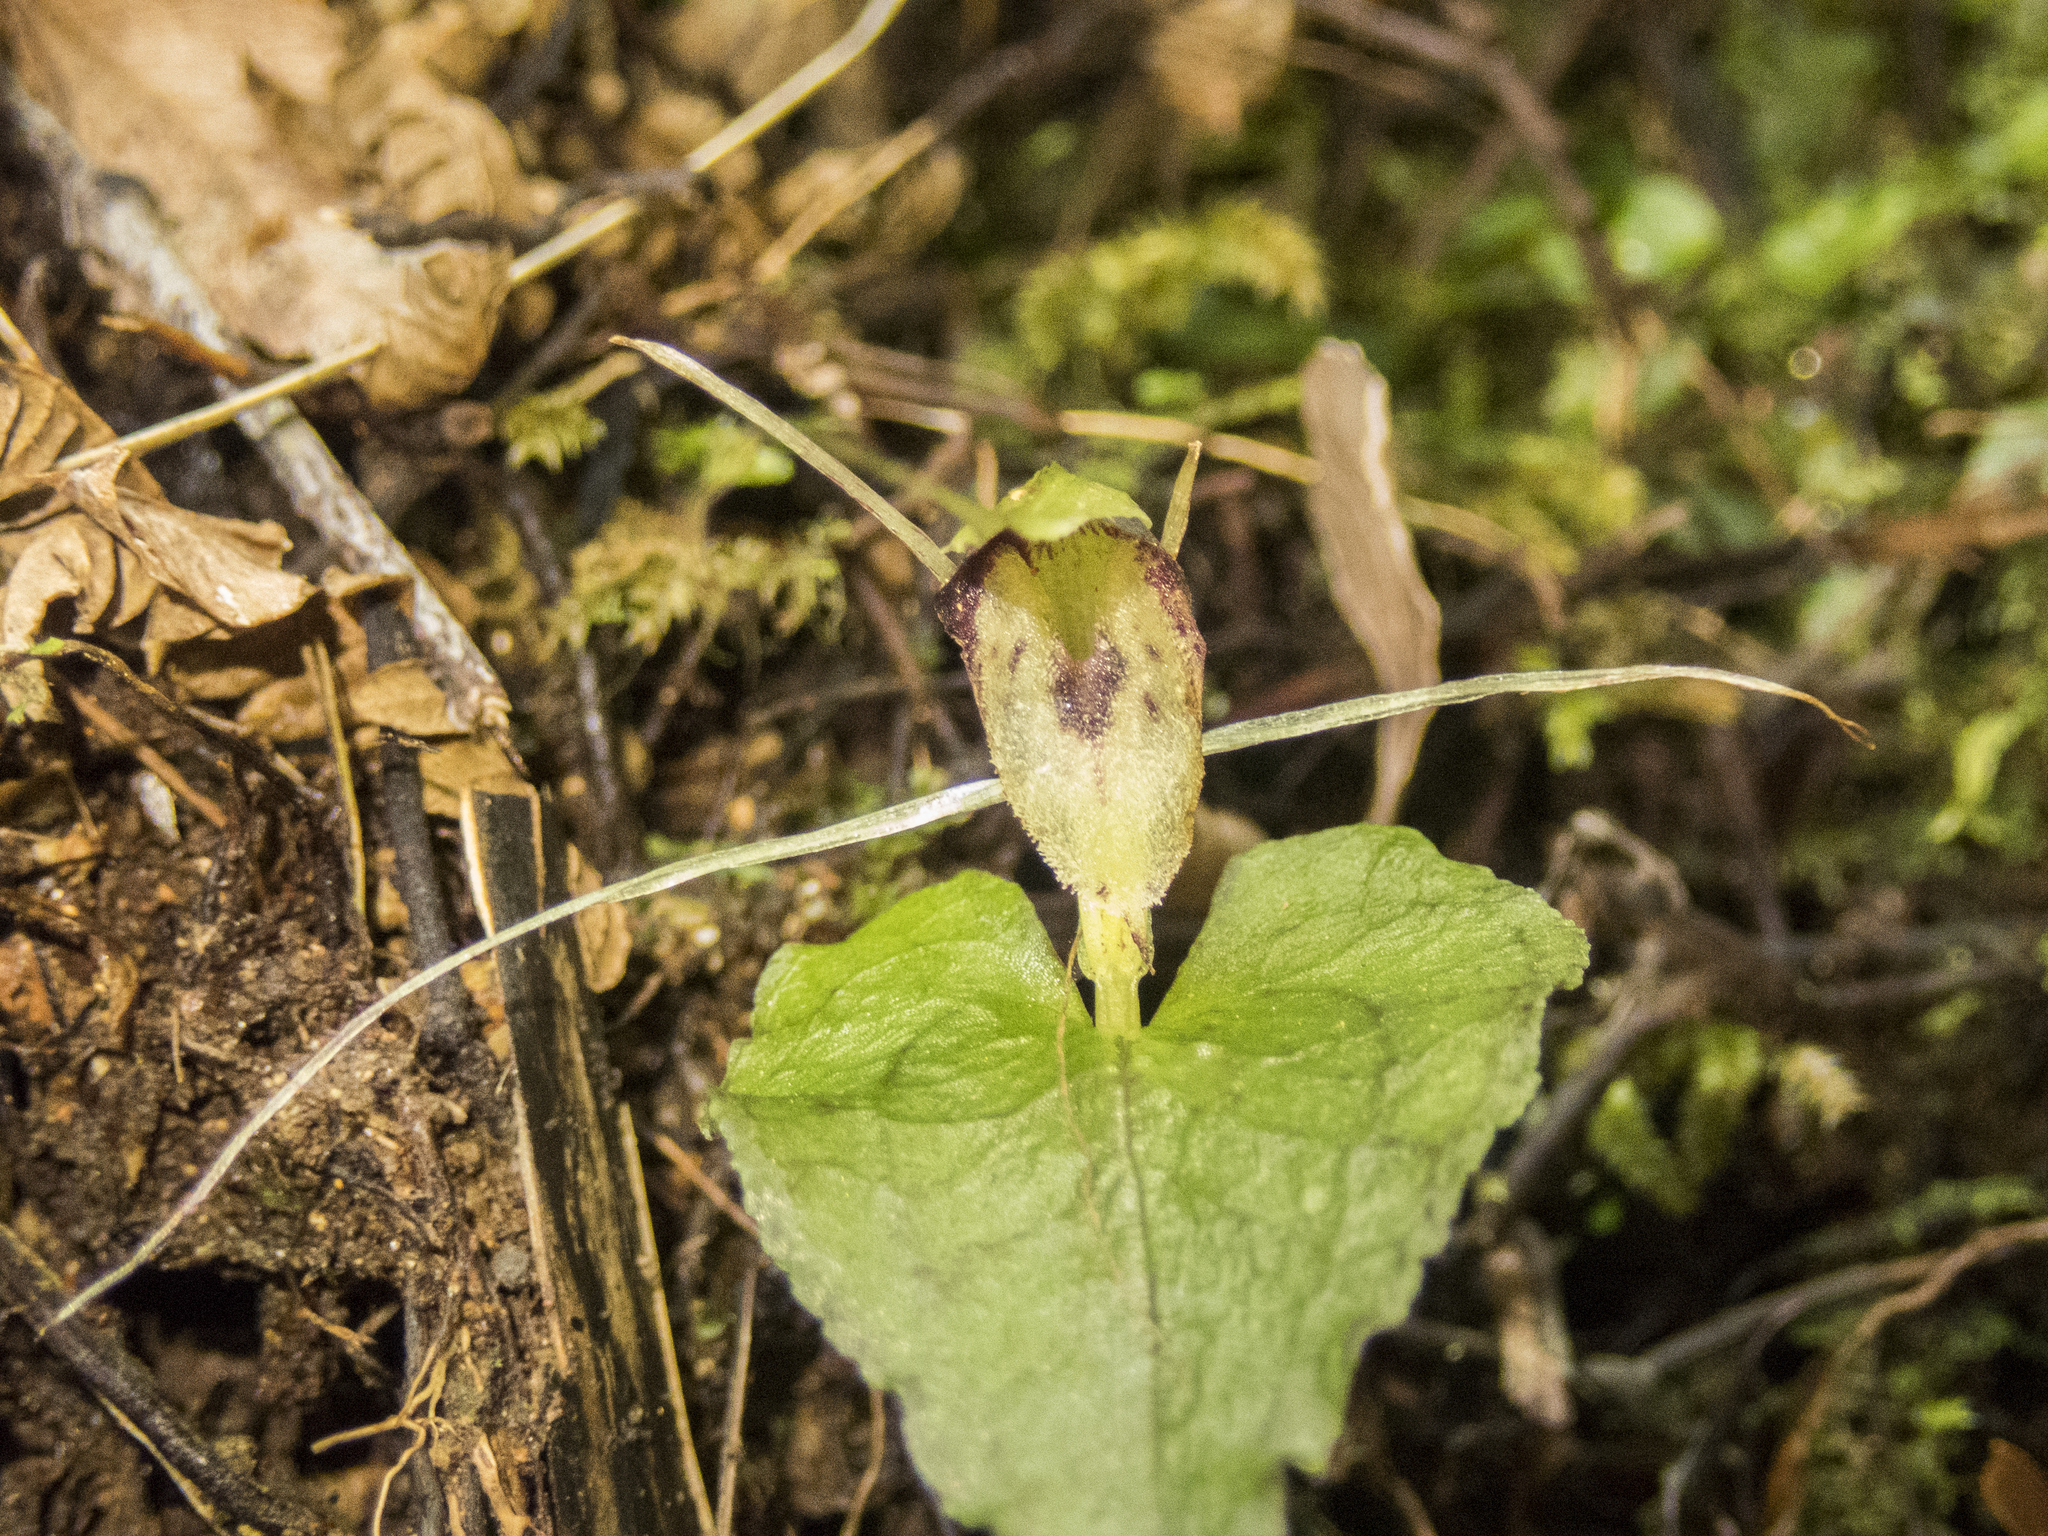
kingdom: Plantae
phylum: Tracheophyta
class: Liliopsida
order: Asparagales
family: Orchidaceae
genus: Corybas
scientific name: Corybas acuminatus
